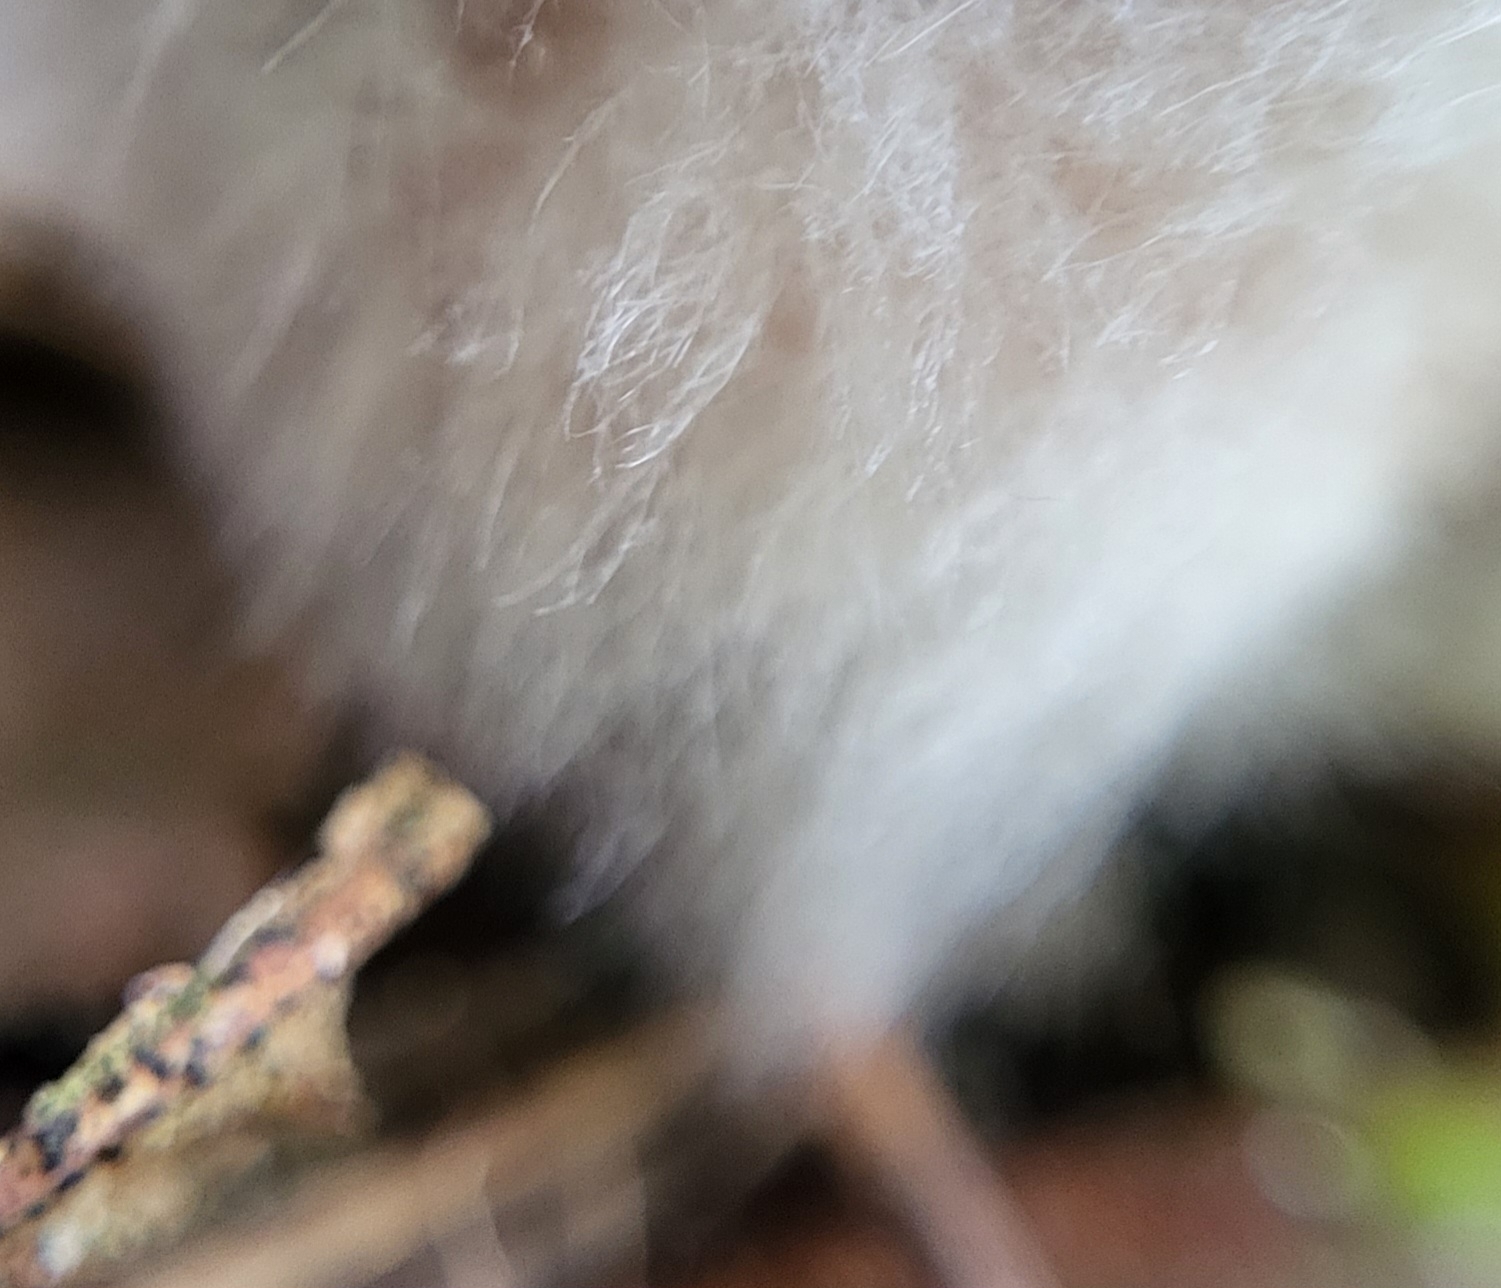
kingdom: Fungi
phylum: Mucoromycota
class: Mucoromycetes
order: Mucorales
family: Rhizopodaceae
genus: Syzygites
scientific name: Syzygites megalocarpus
